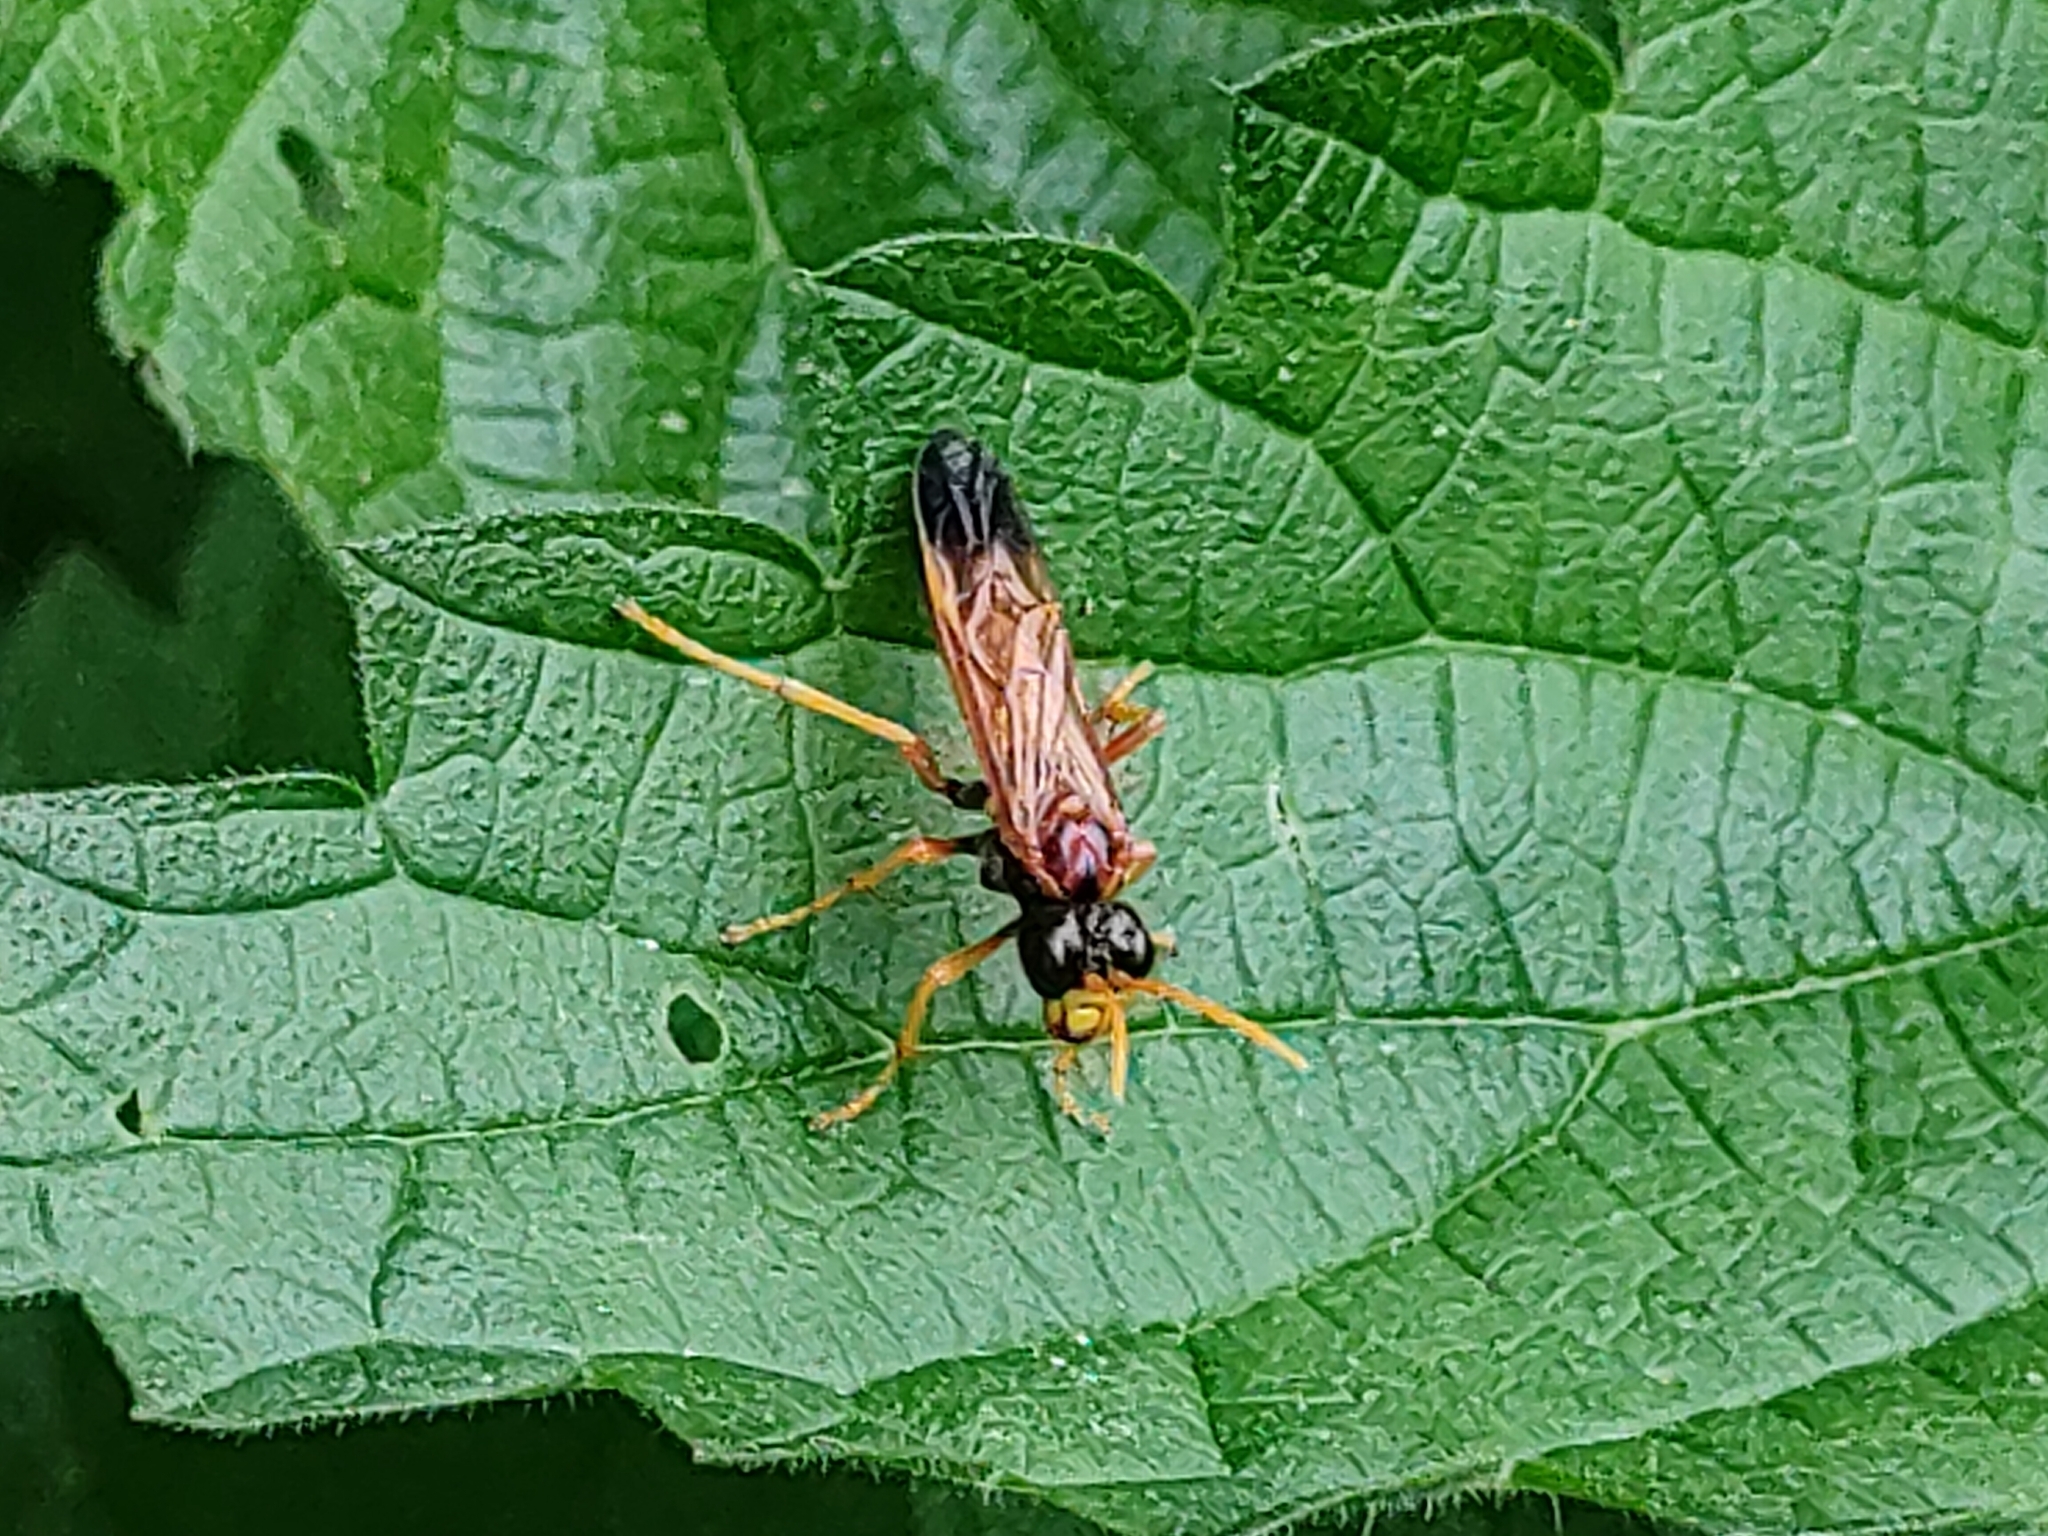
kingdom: Animalia
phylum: Arthropoda
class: Insecta
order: Hymenoptera
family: Tenthredinidae
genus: Tenthredo
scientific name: Tenthredo campestris
